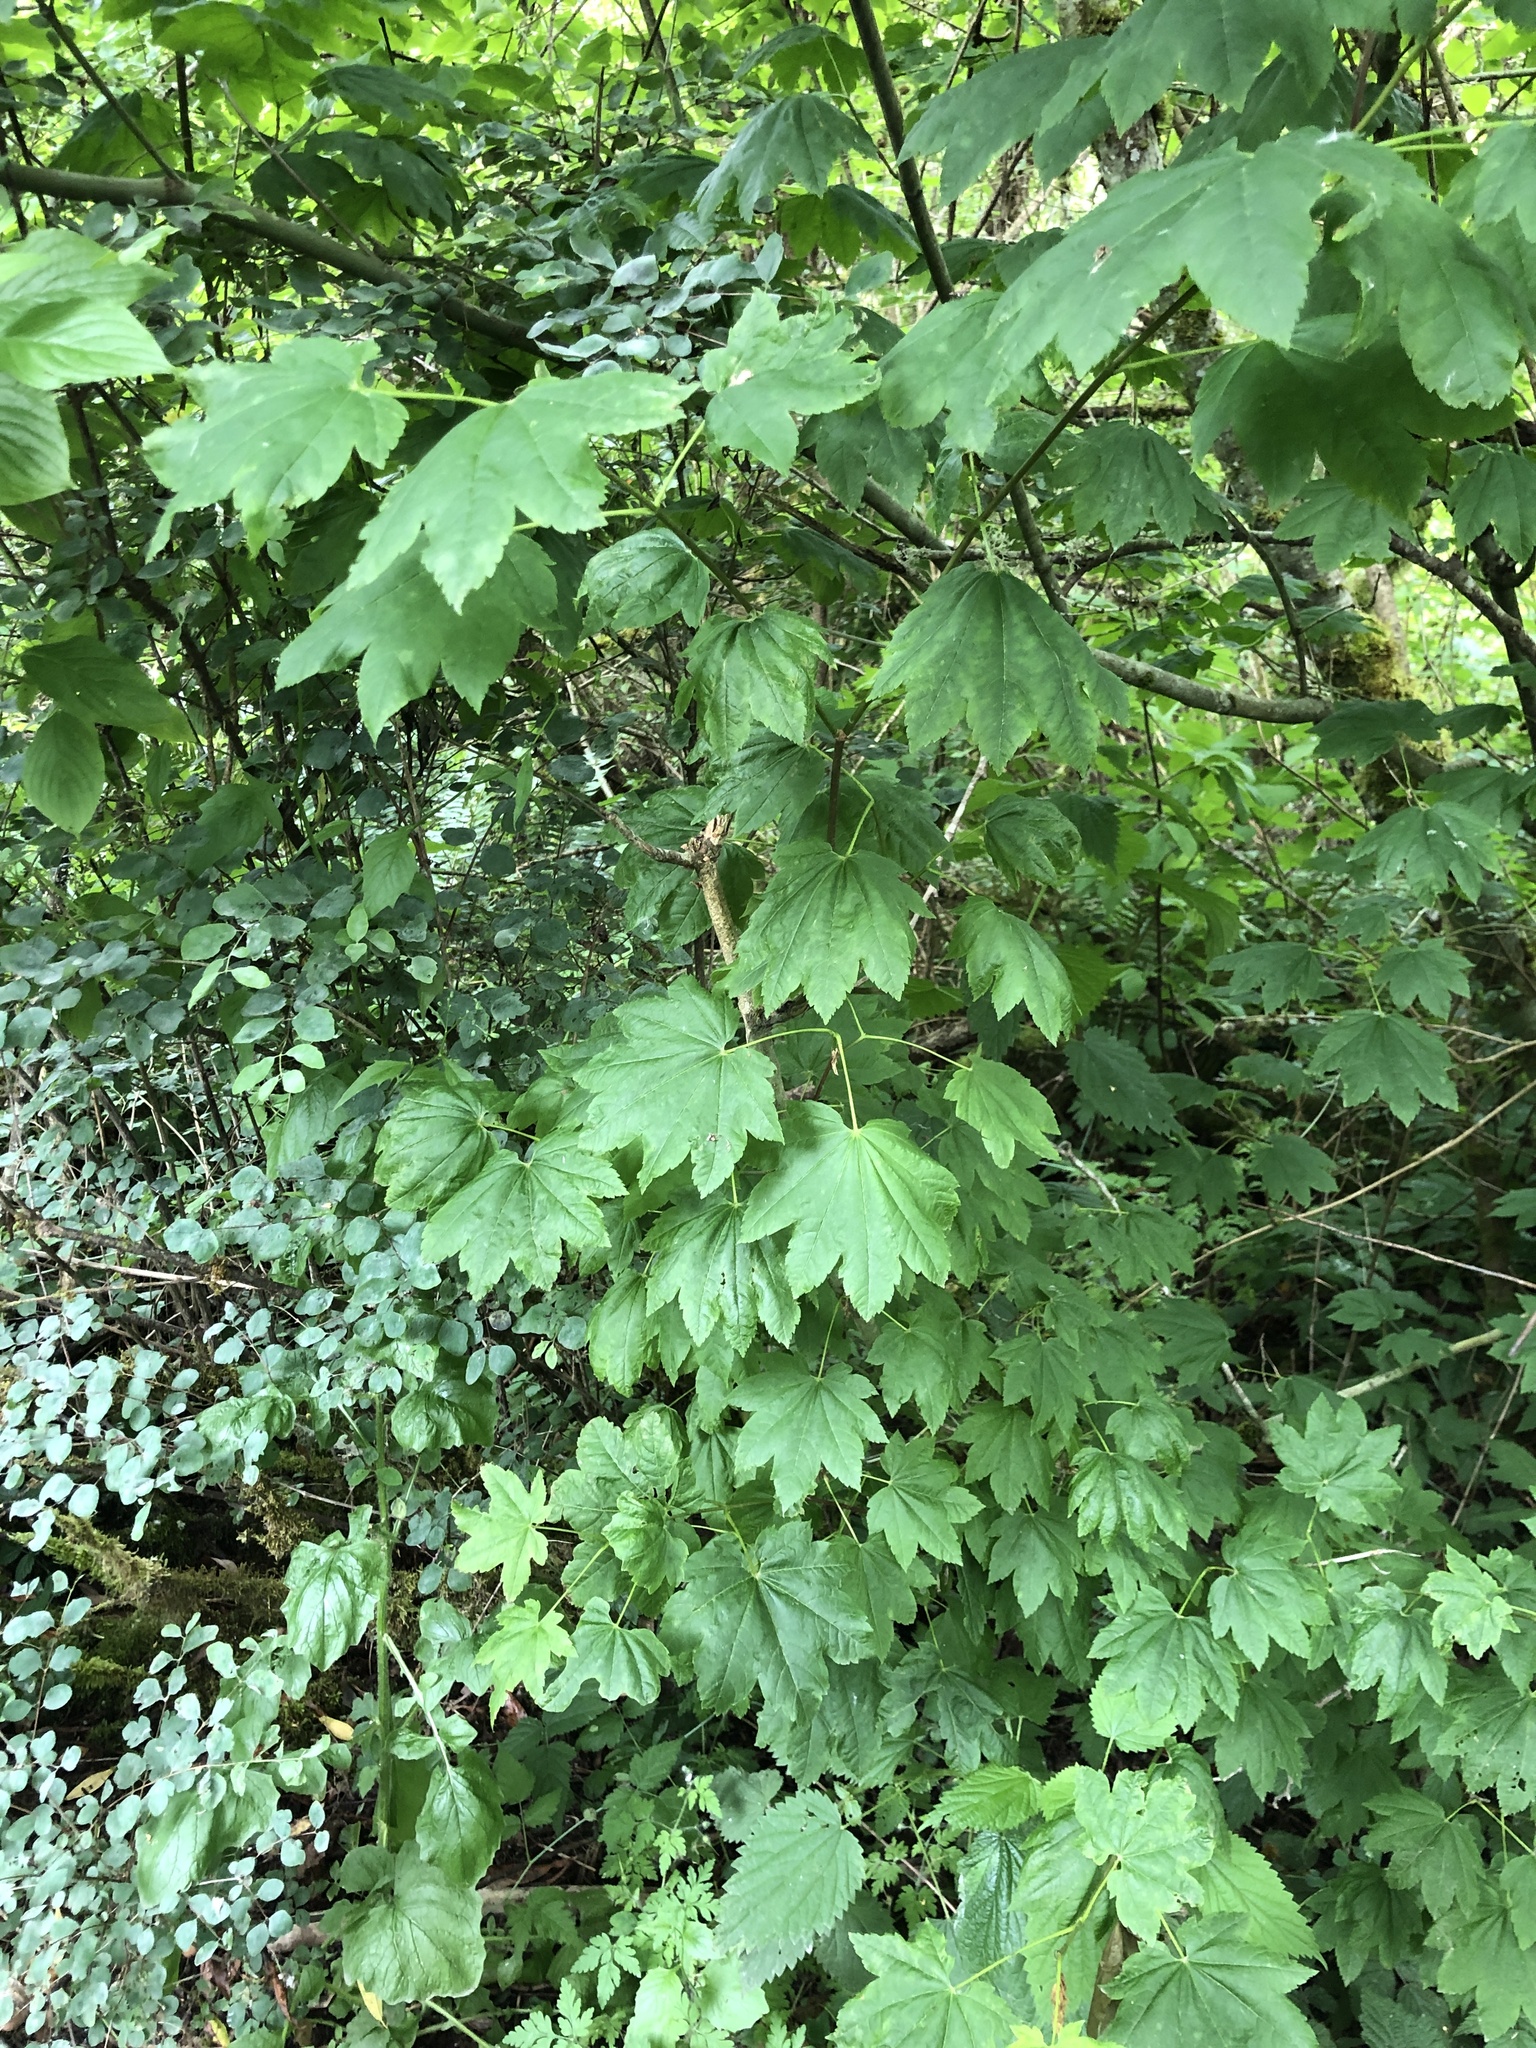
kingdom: Plantae
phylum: Tracheophyta
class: Magnoliopsida
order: Sapindales
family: Sapindaceae
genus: Acer
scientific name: Acer circinatum
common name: Vine maple
